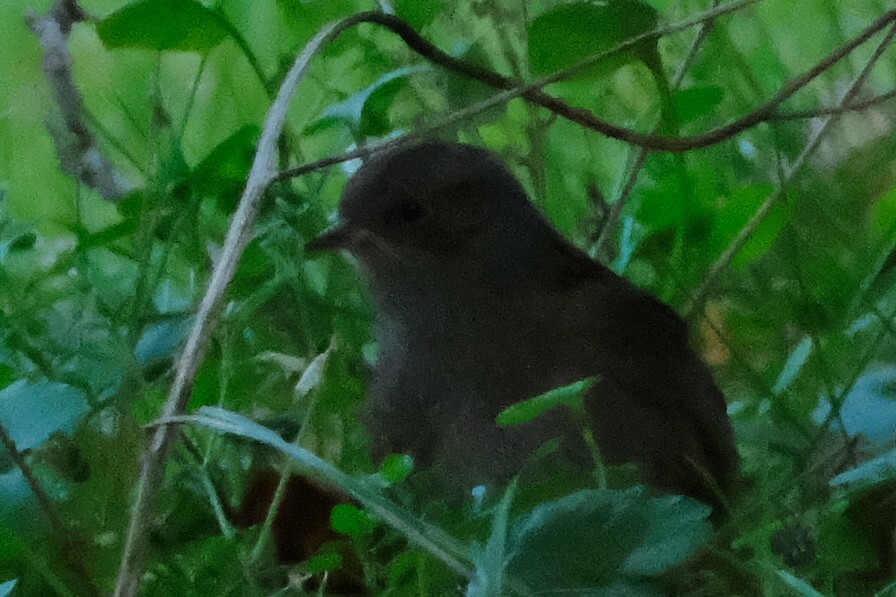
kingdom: Animalia
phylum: Chordata
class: Aves
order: Passeriformes
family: Prunellidae
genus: Prunella
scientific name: Prunella modularis
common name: Dunnock
